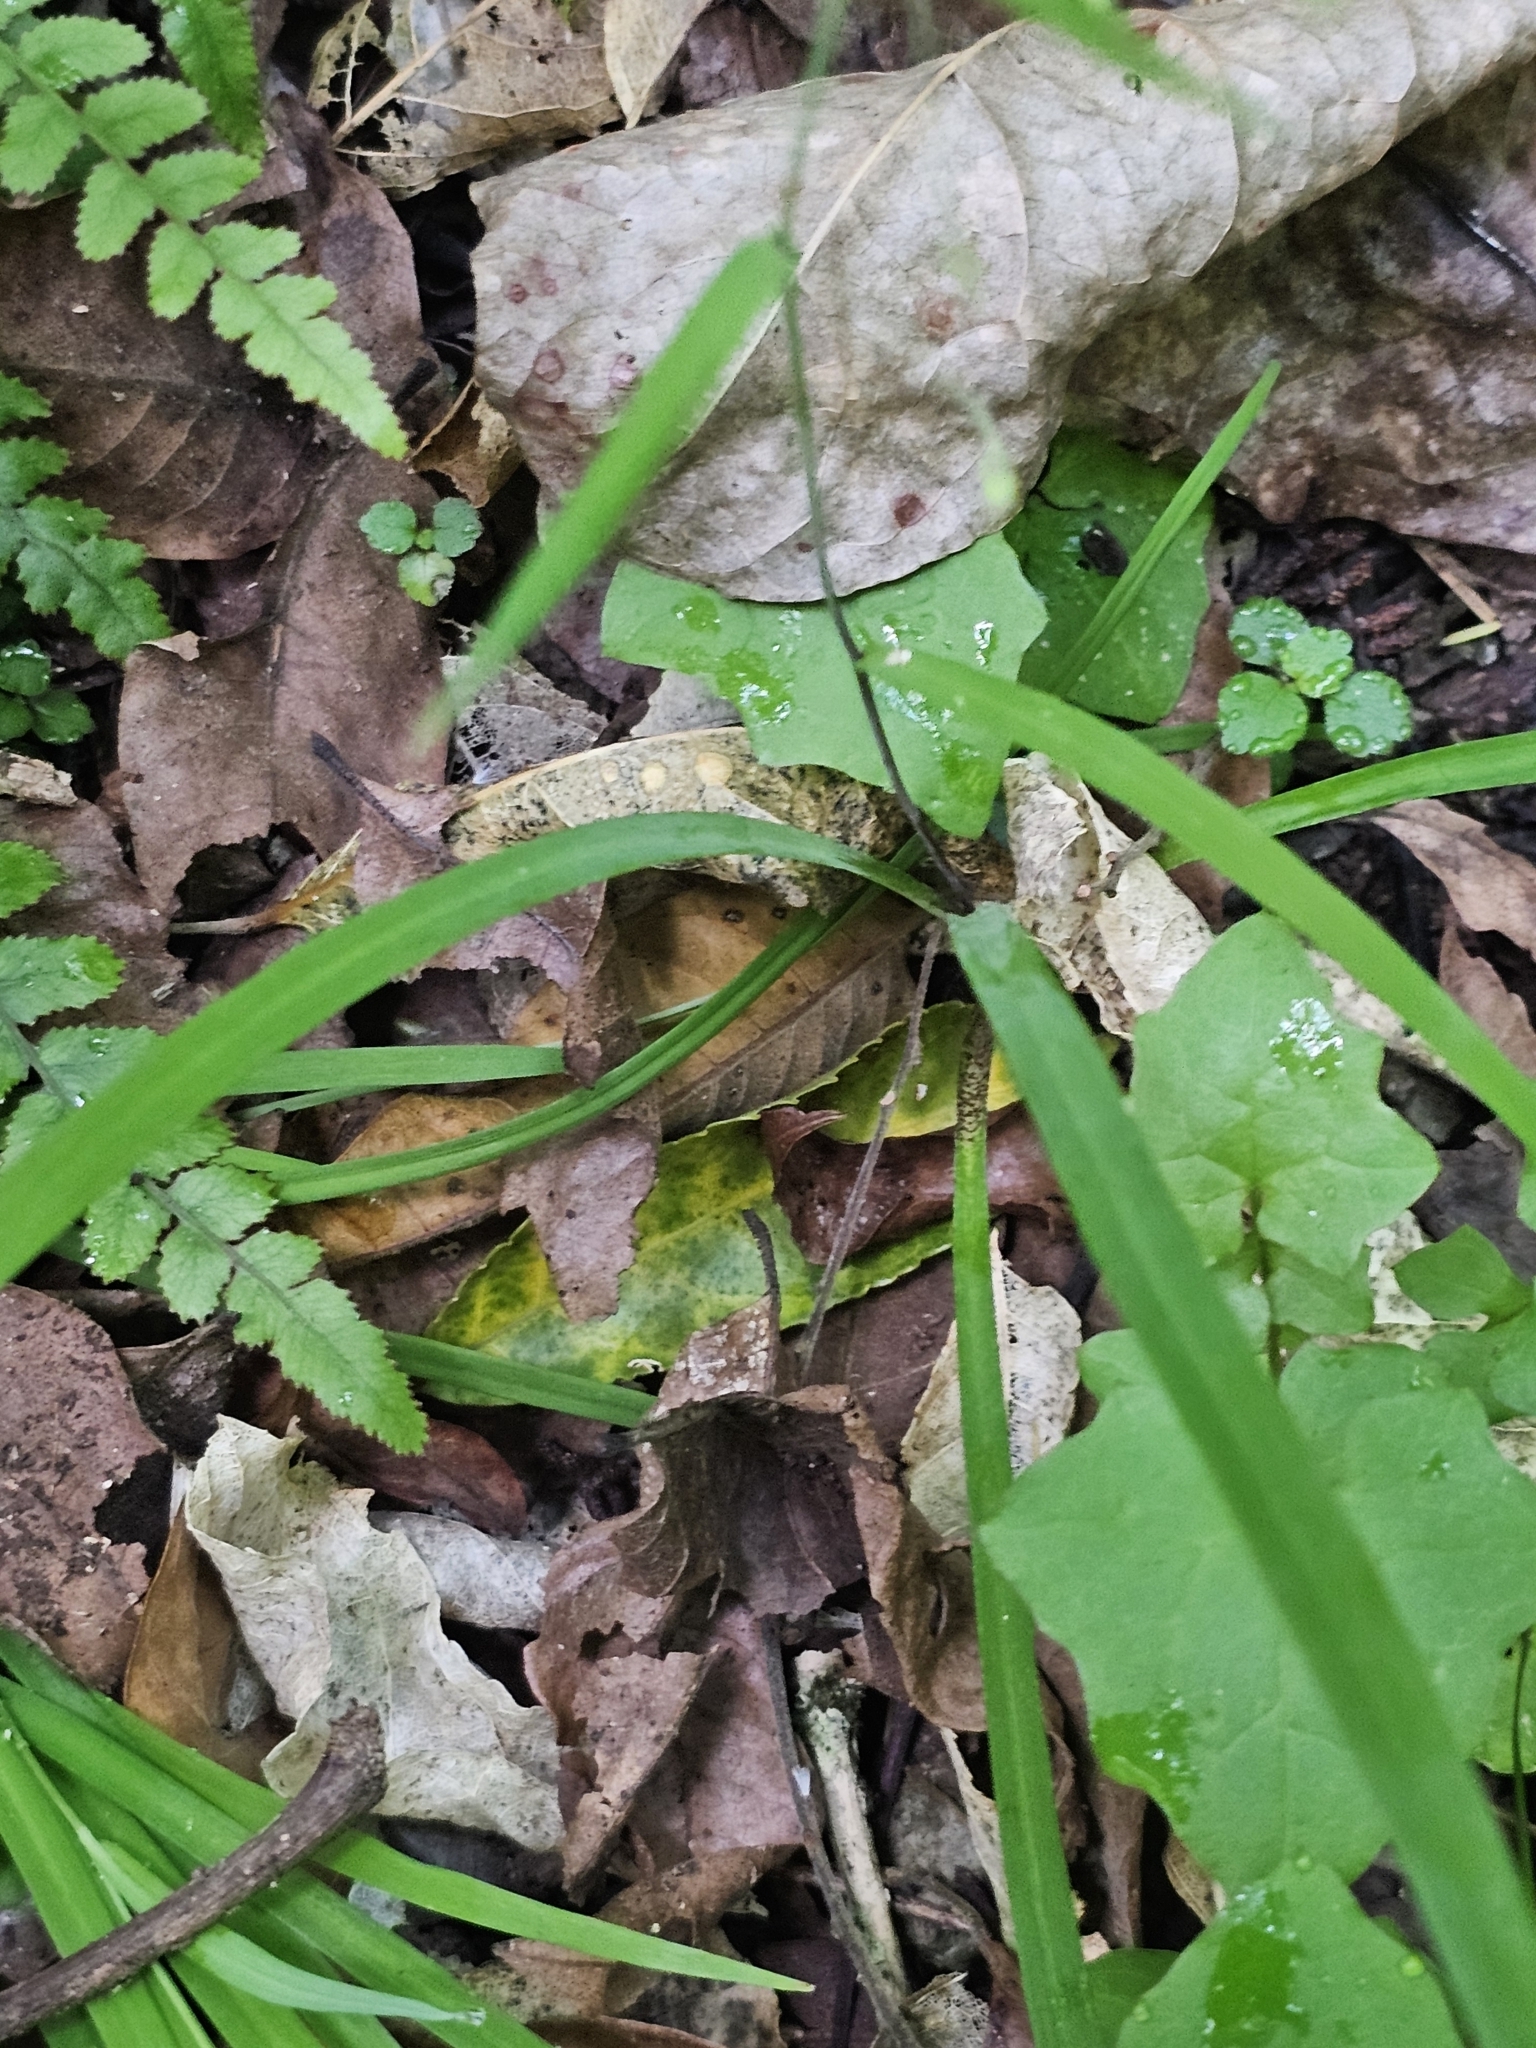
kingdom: Plantae
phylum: Tracheophyta
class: Liliopsida
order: Asparagales
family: Asparagaceae
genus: Arthropodium
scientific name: Arthropodium candidum
